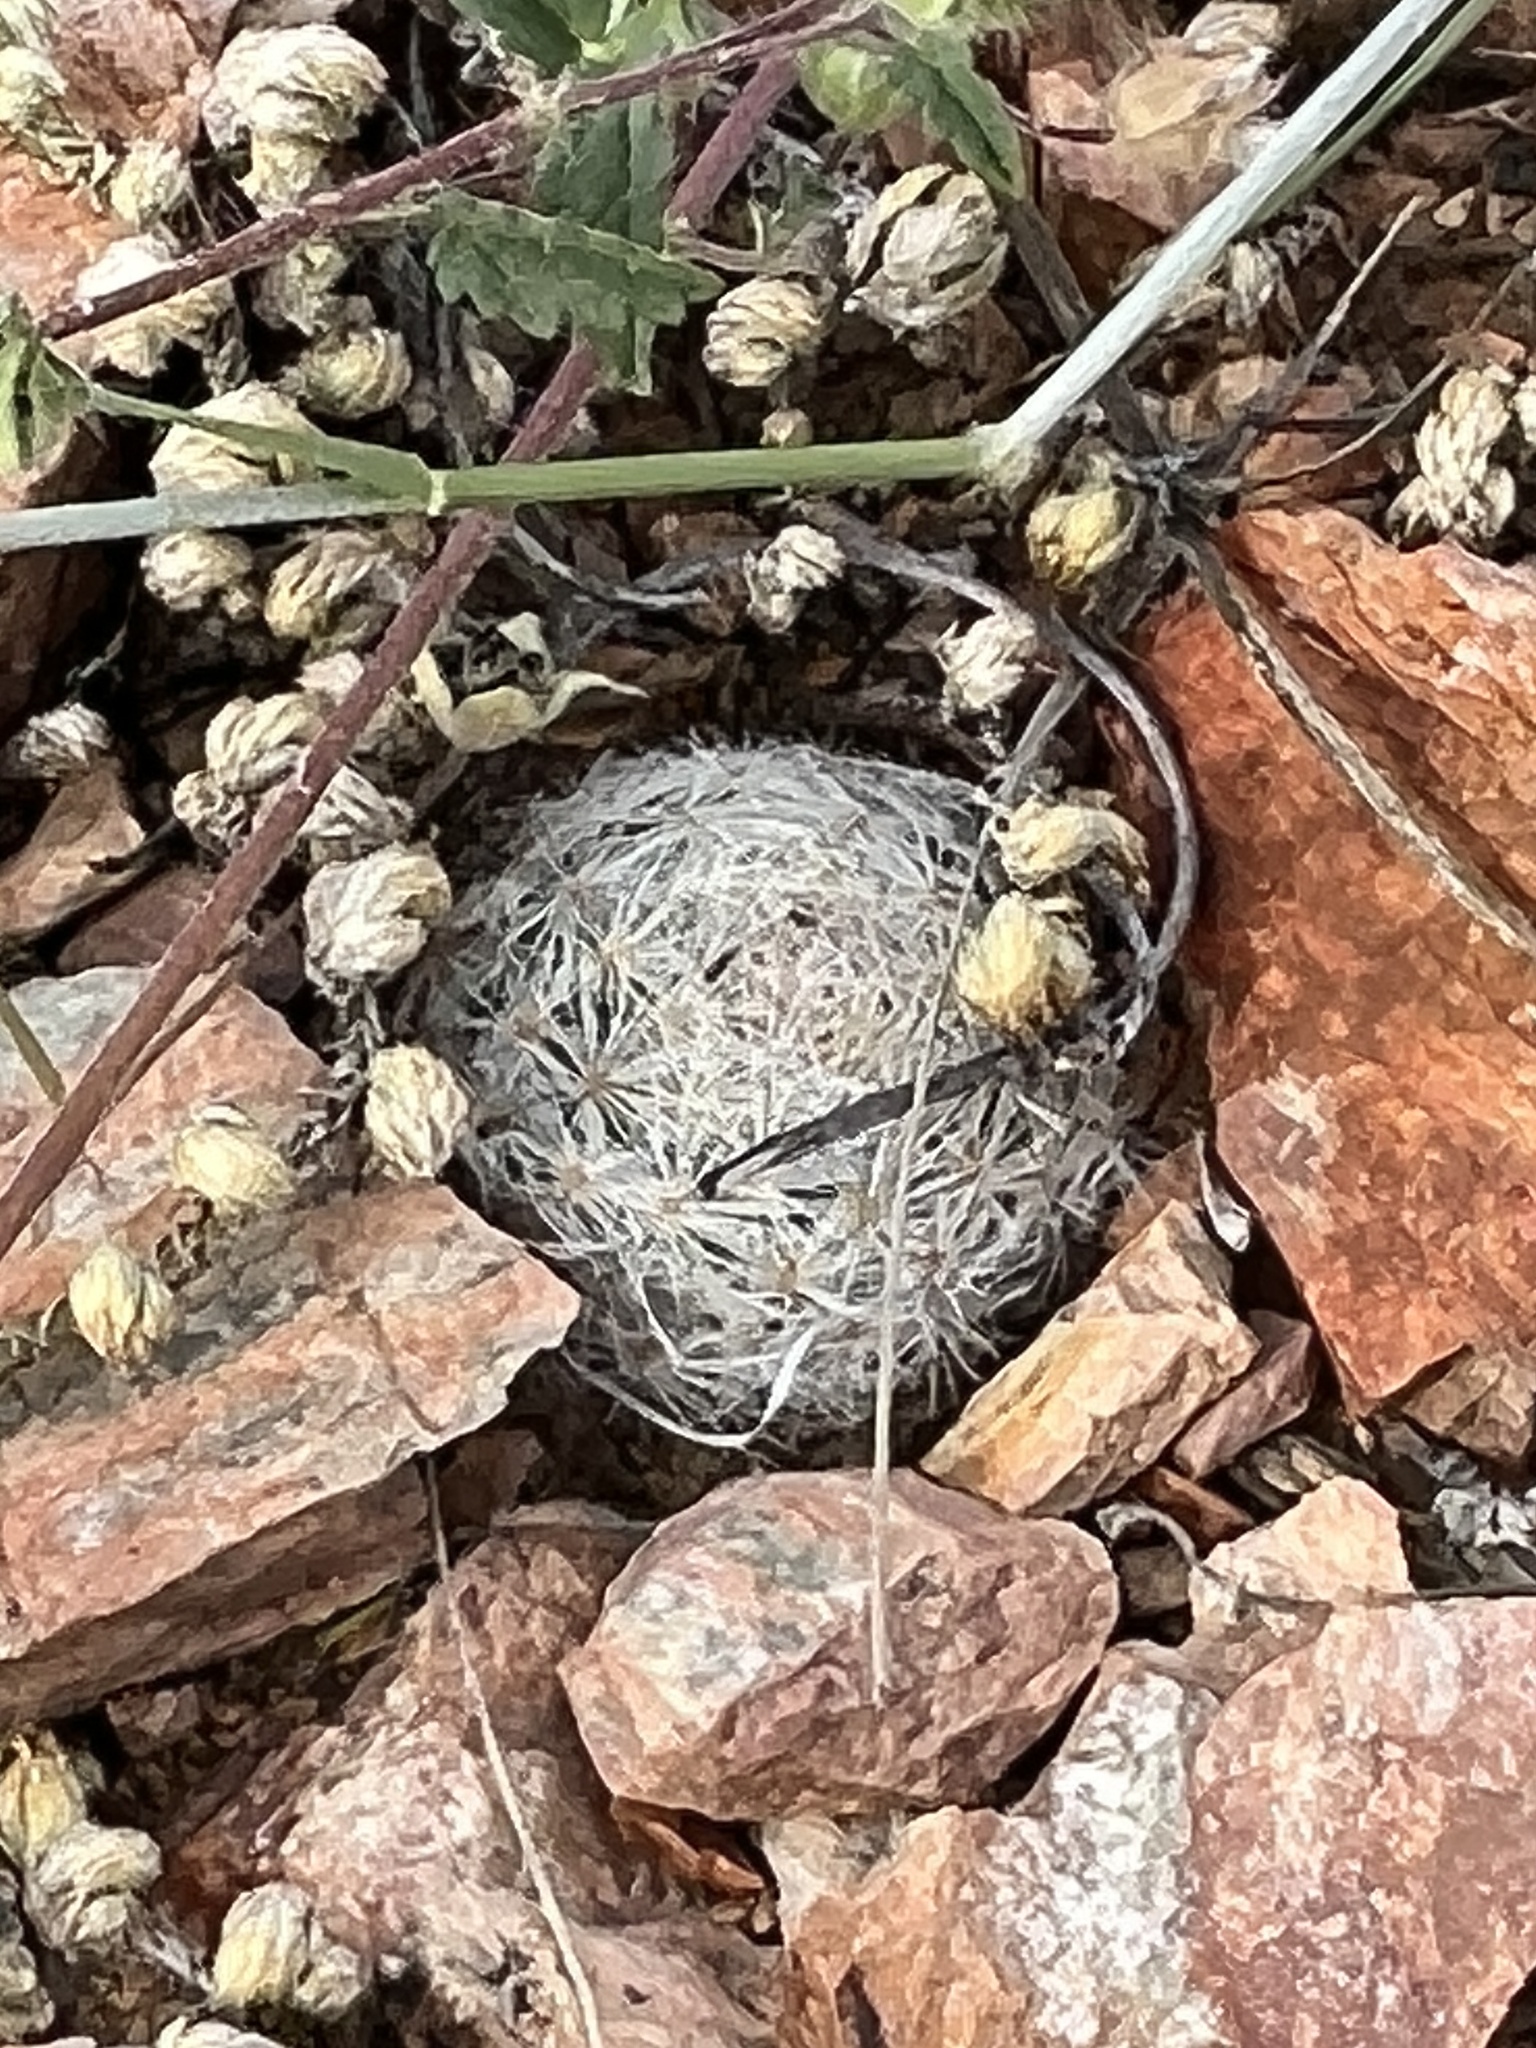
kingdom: Plantae
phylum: Tracheophyta
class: Magnoliopsida
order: Caryophyllales
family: Cactaceae
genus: Mammillaria
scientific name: Mammillaria lasiacantha
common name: Lace-spine nipple cactus
